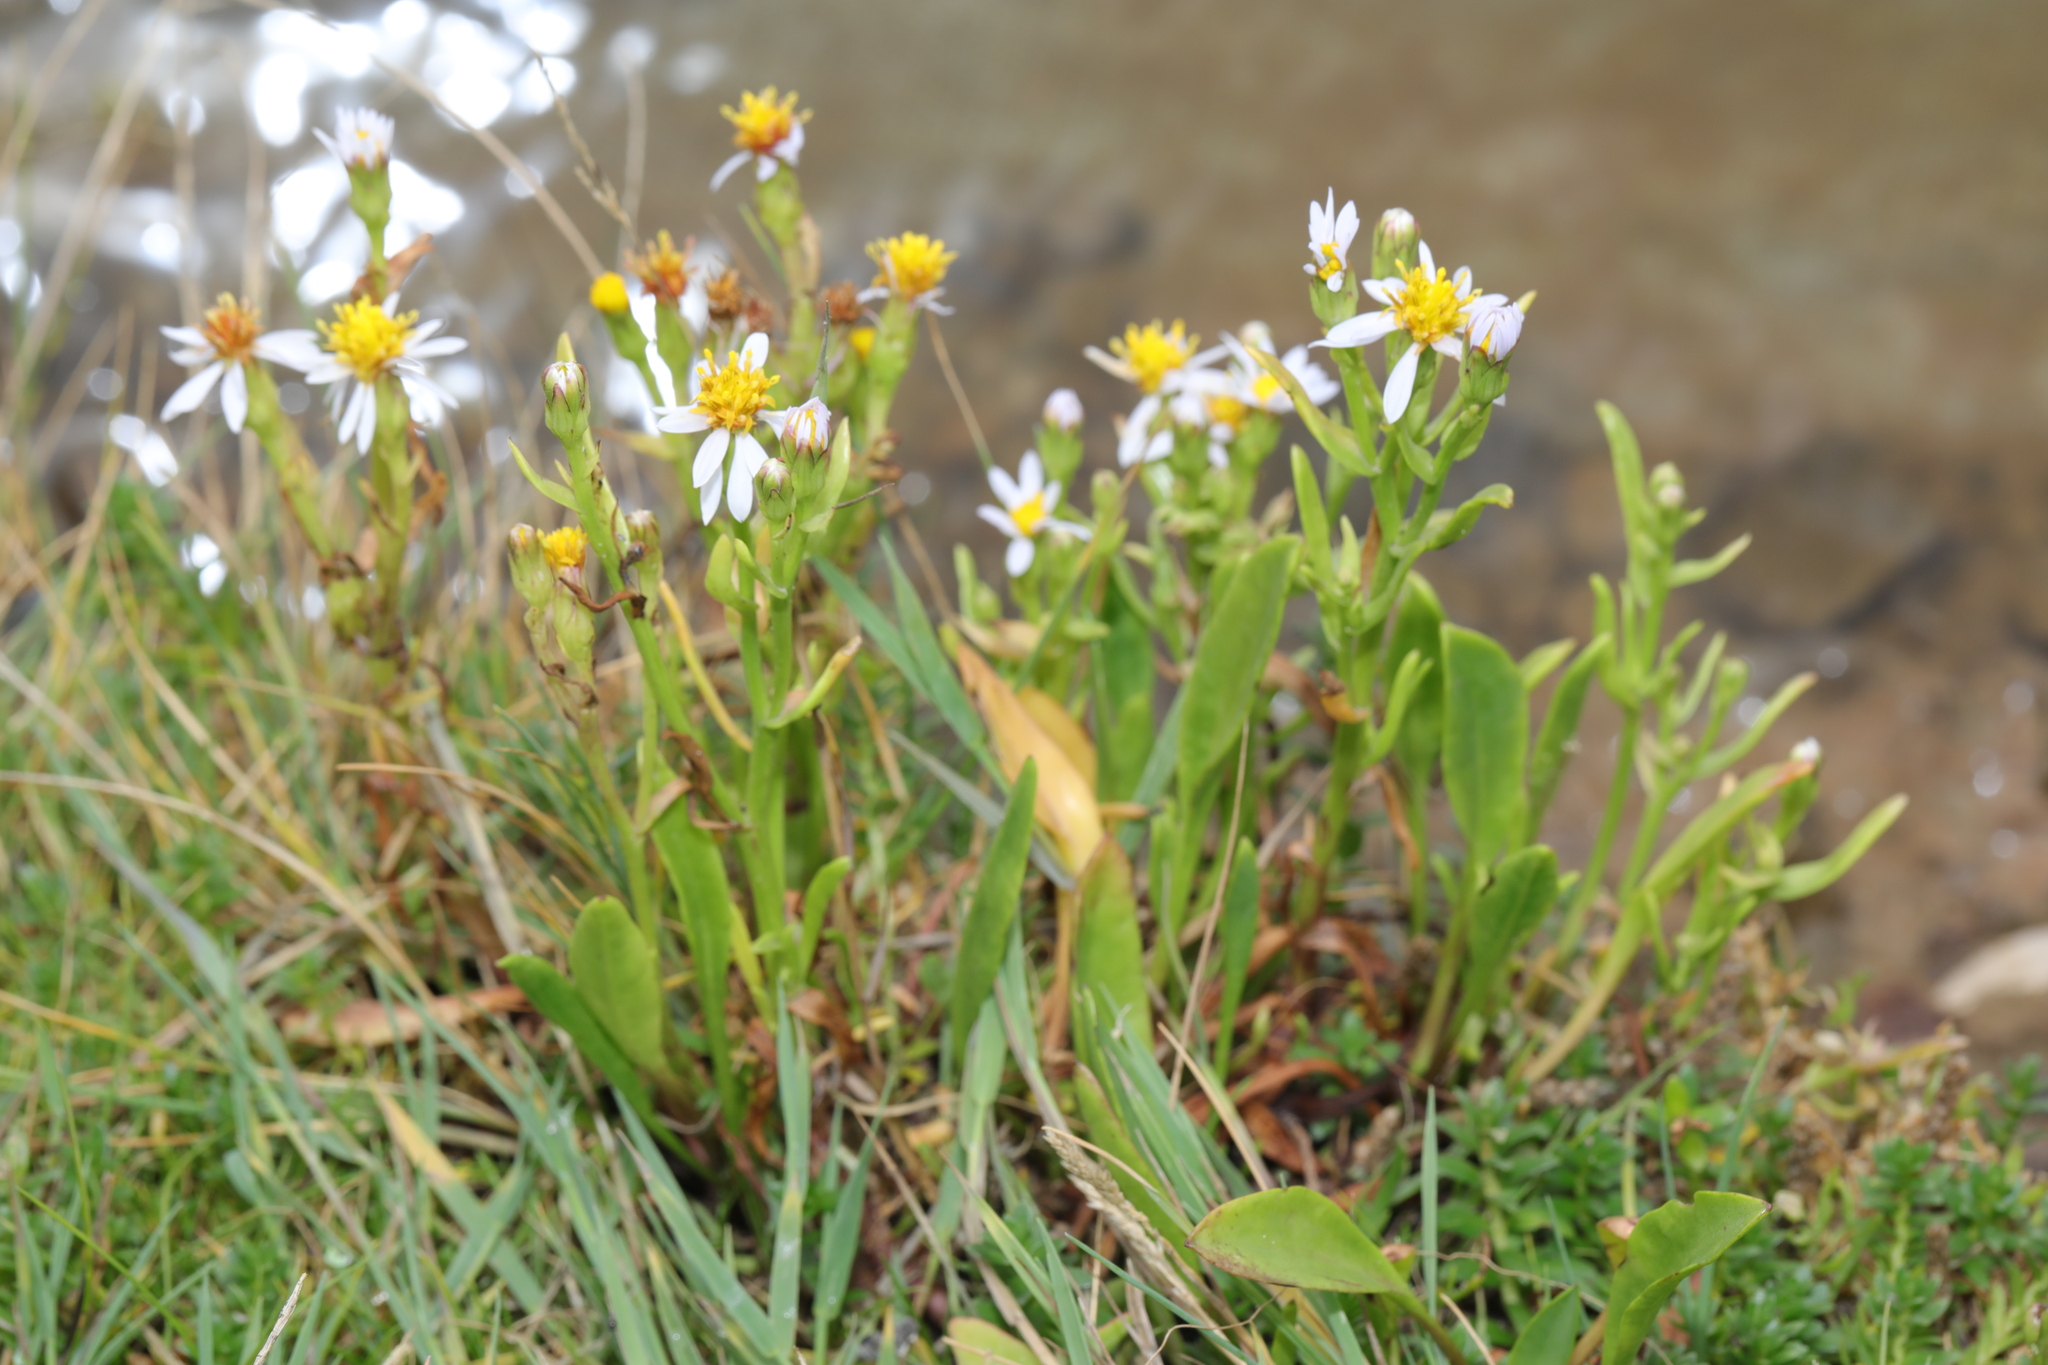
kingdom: Plantae
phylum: Tracheophyta
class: Magnoliopsida
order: Asterales
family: Asteraceae
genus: Tripolium
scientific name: Tripolium pannonicum
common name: Sea aster
